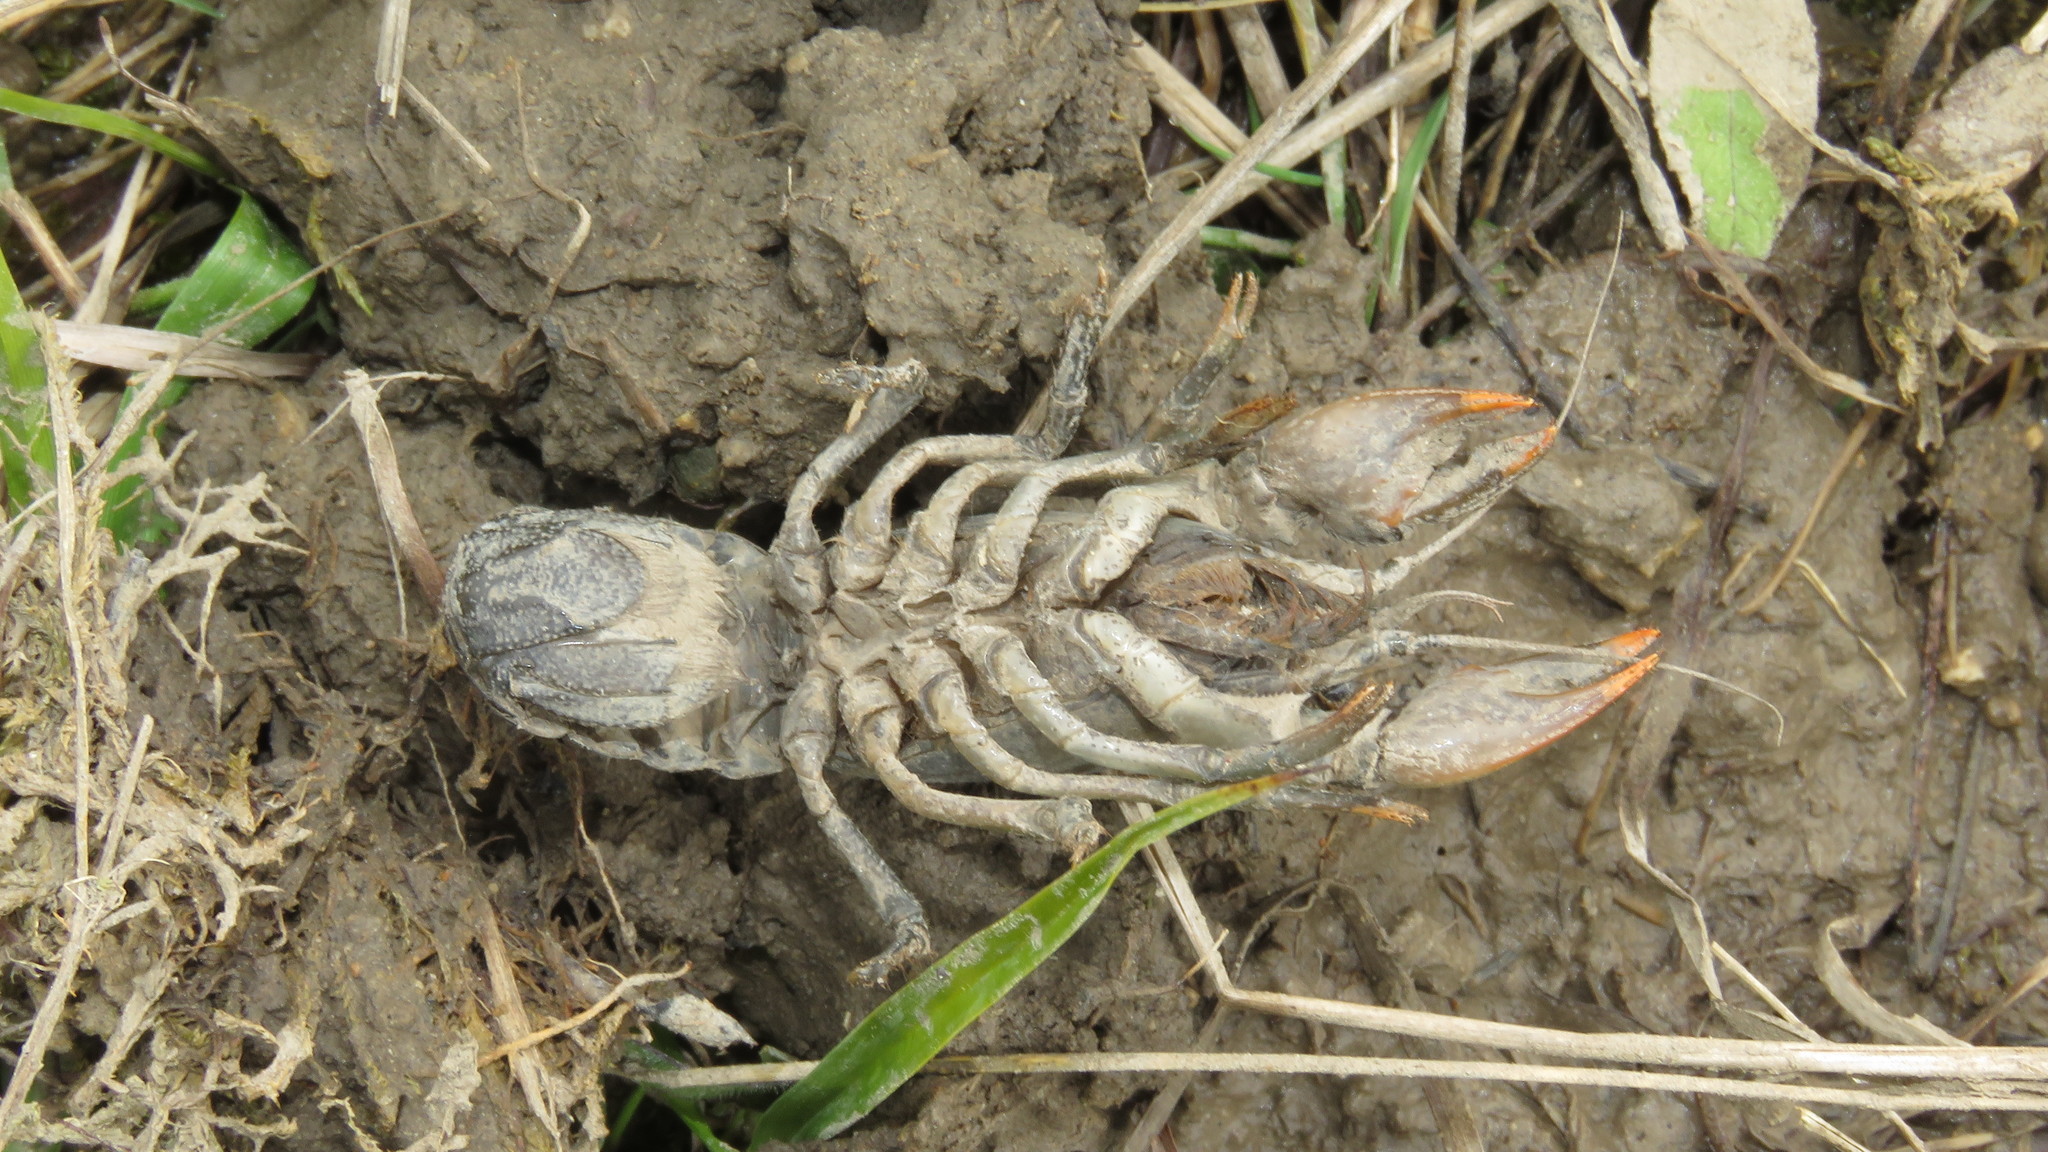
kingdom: Animalia
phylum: Arthropoda
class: Malacostraca
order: Decapoda
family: Cambaridae
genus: Creaserinus
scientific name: Creaserinus fodiens
